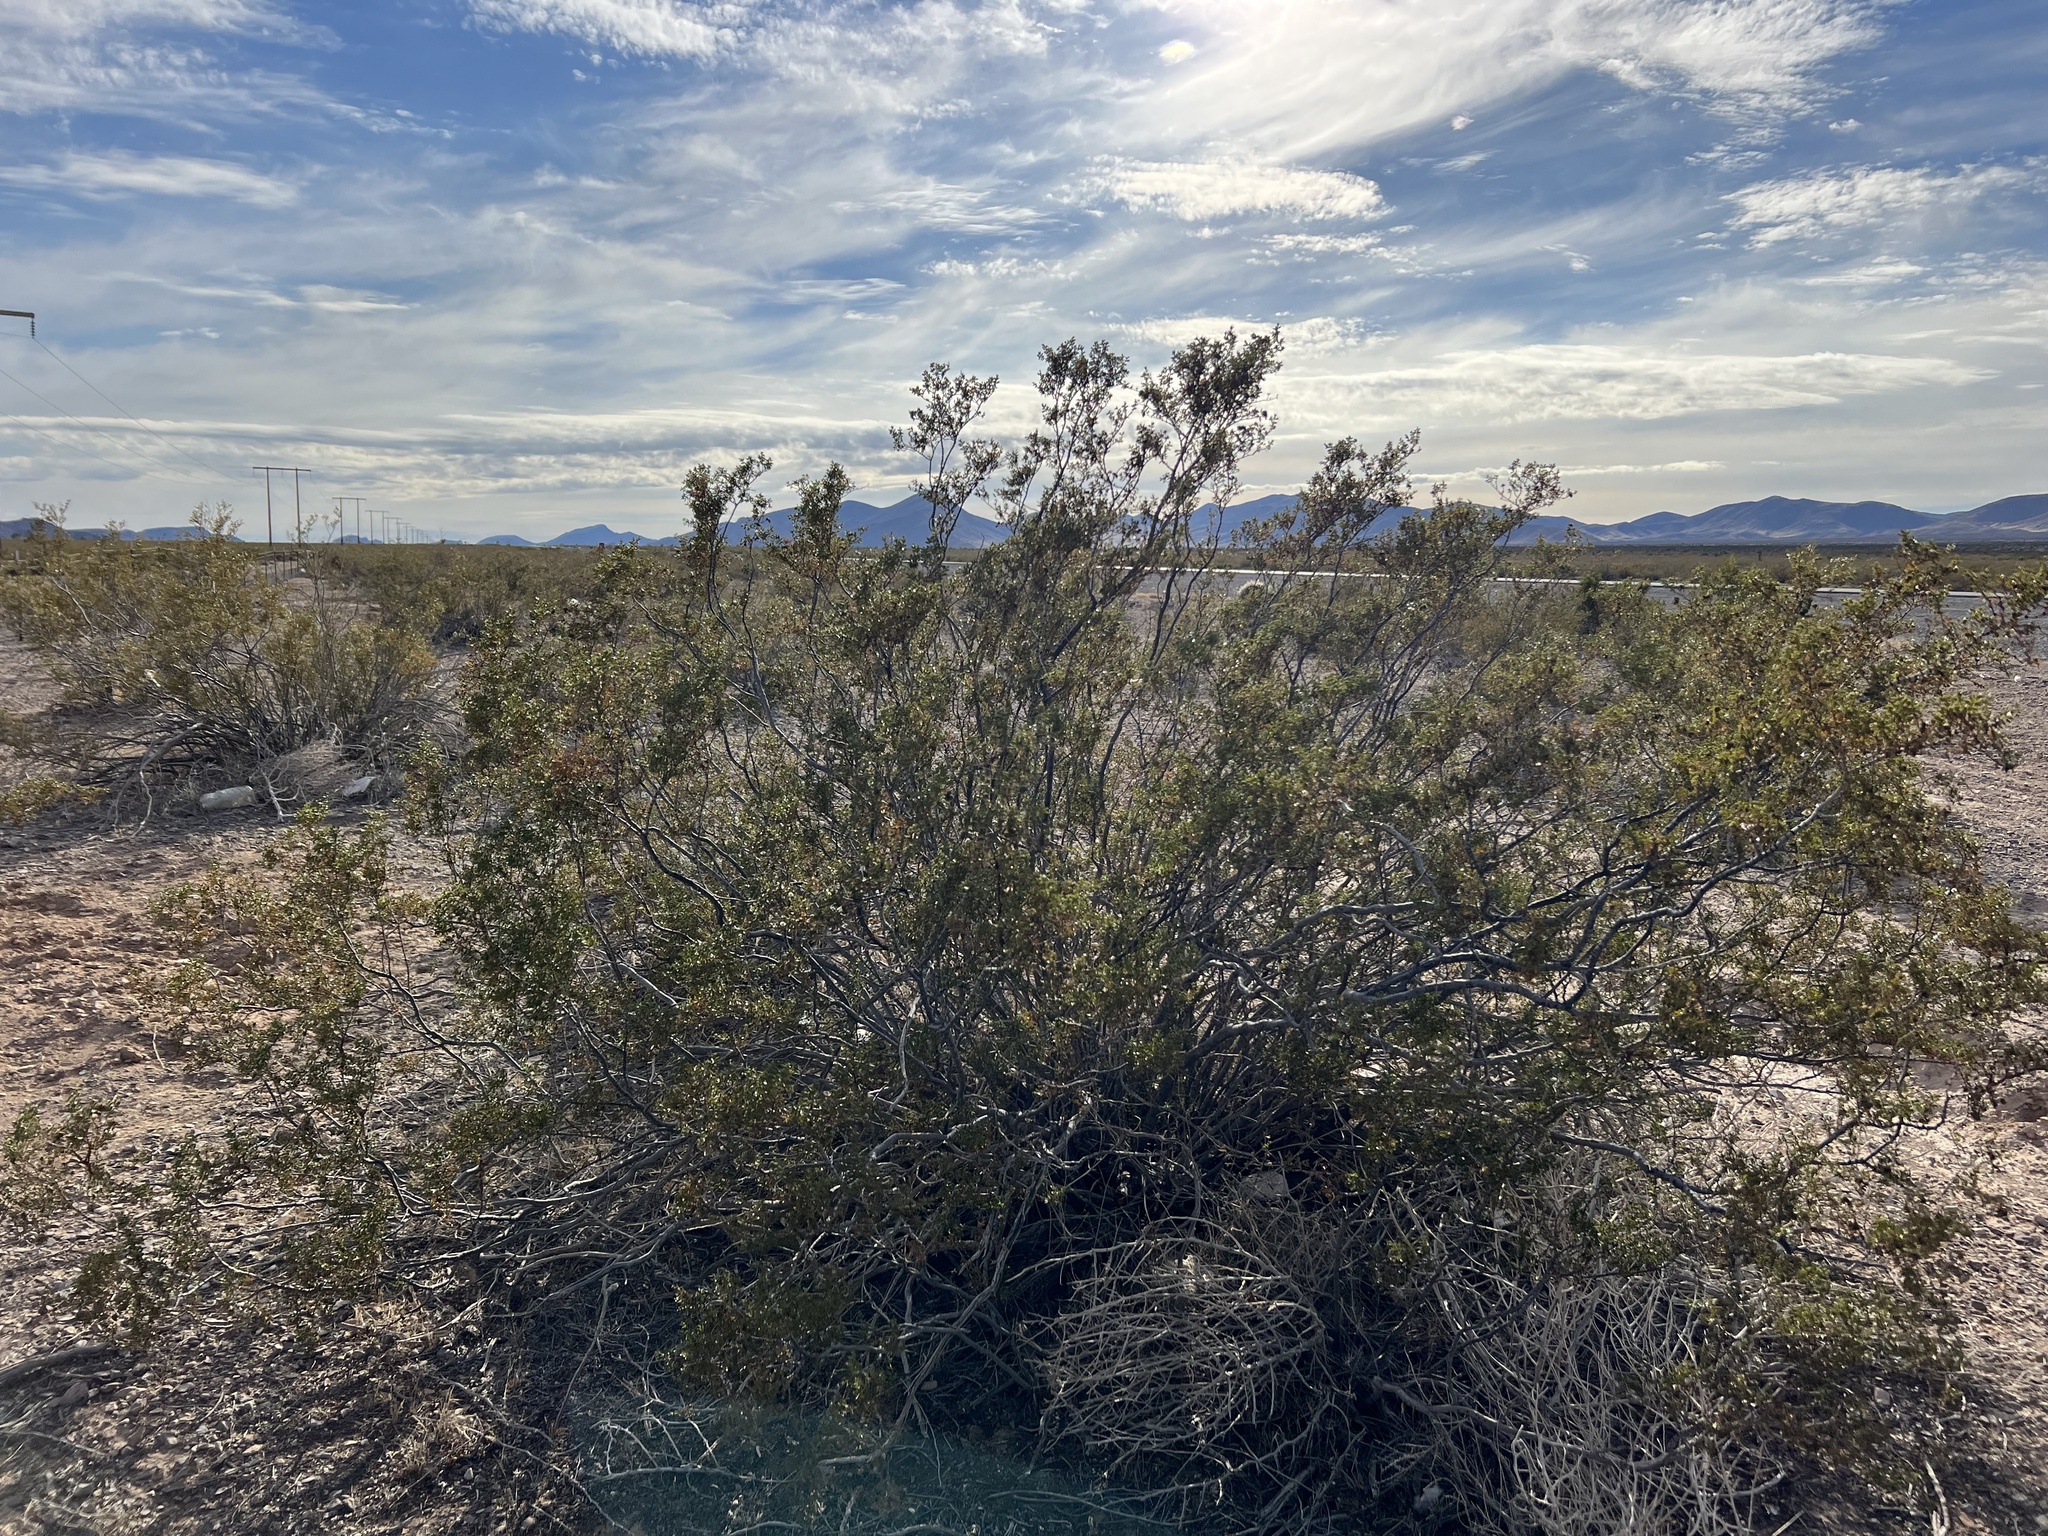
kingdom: Plantae
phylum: Tracheophyta
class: Magnoliopsida
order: Zygophyllales
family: Zygophyllaceae
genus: Larrea
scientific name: Larrea tridentata
